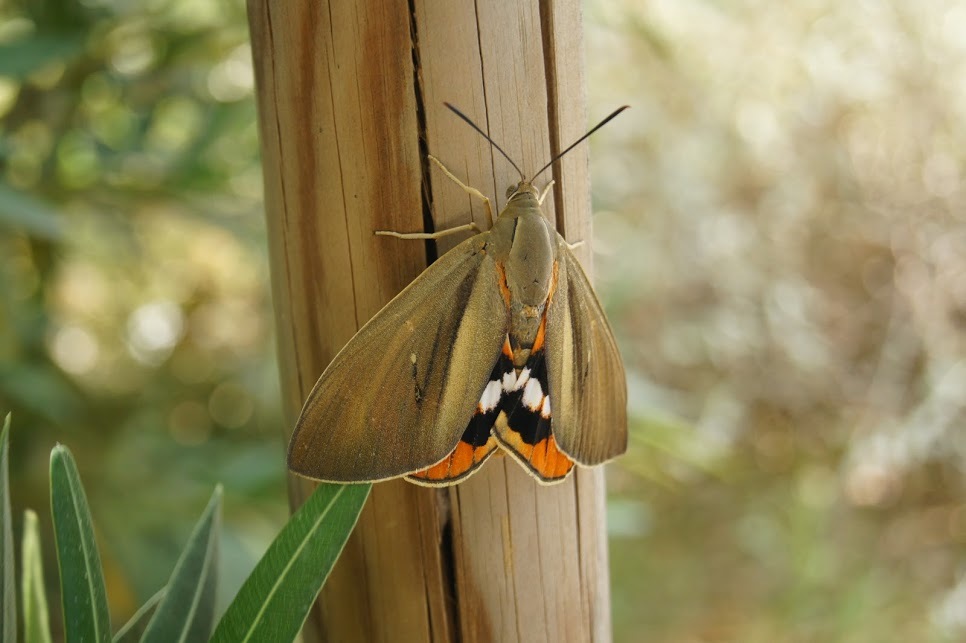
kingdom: Animalia
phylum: Arthropoda
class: Insecta
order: Lepidoptera
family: Castniidae
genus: Paysandisia
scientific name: Paysandisia archon
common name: Palm moth
